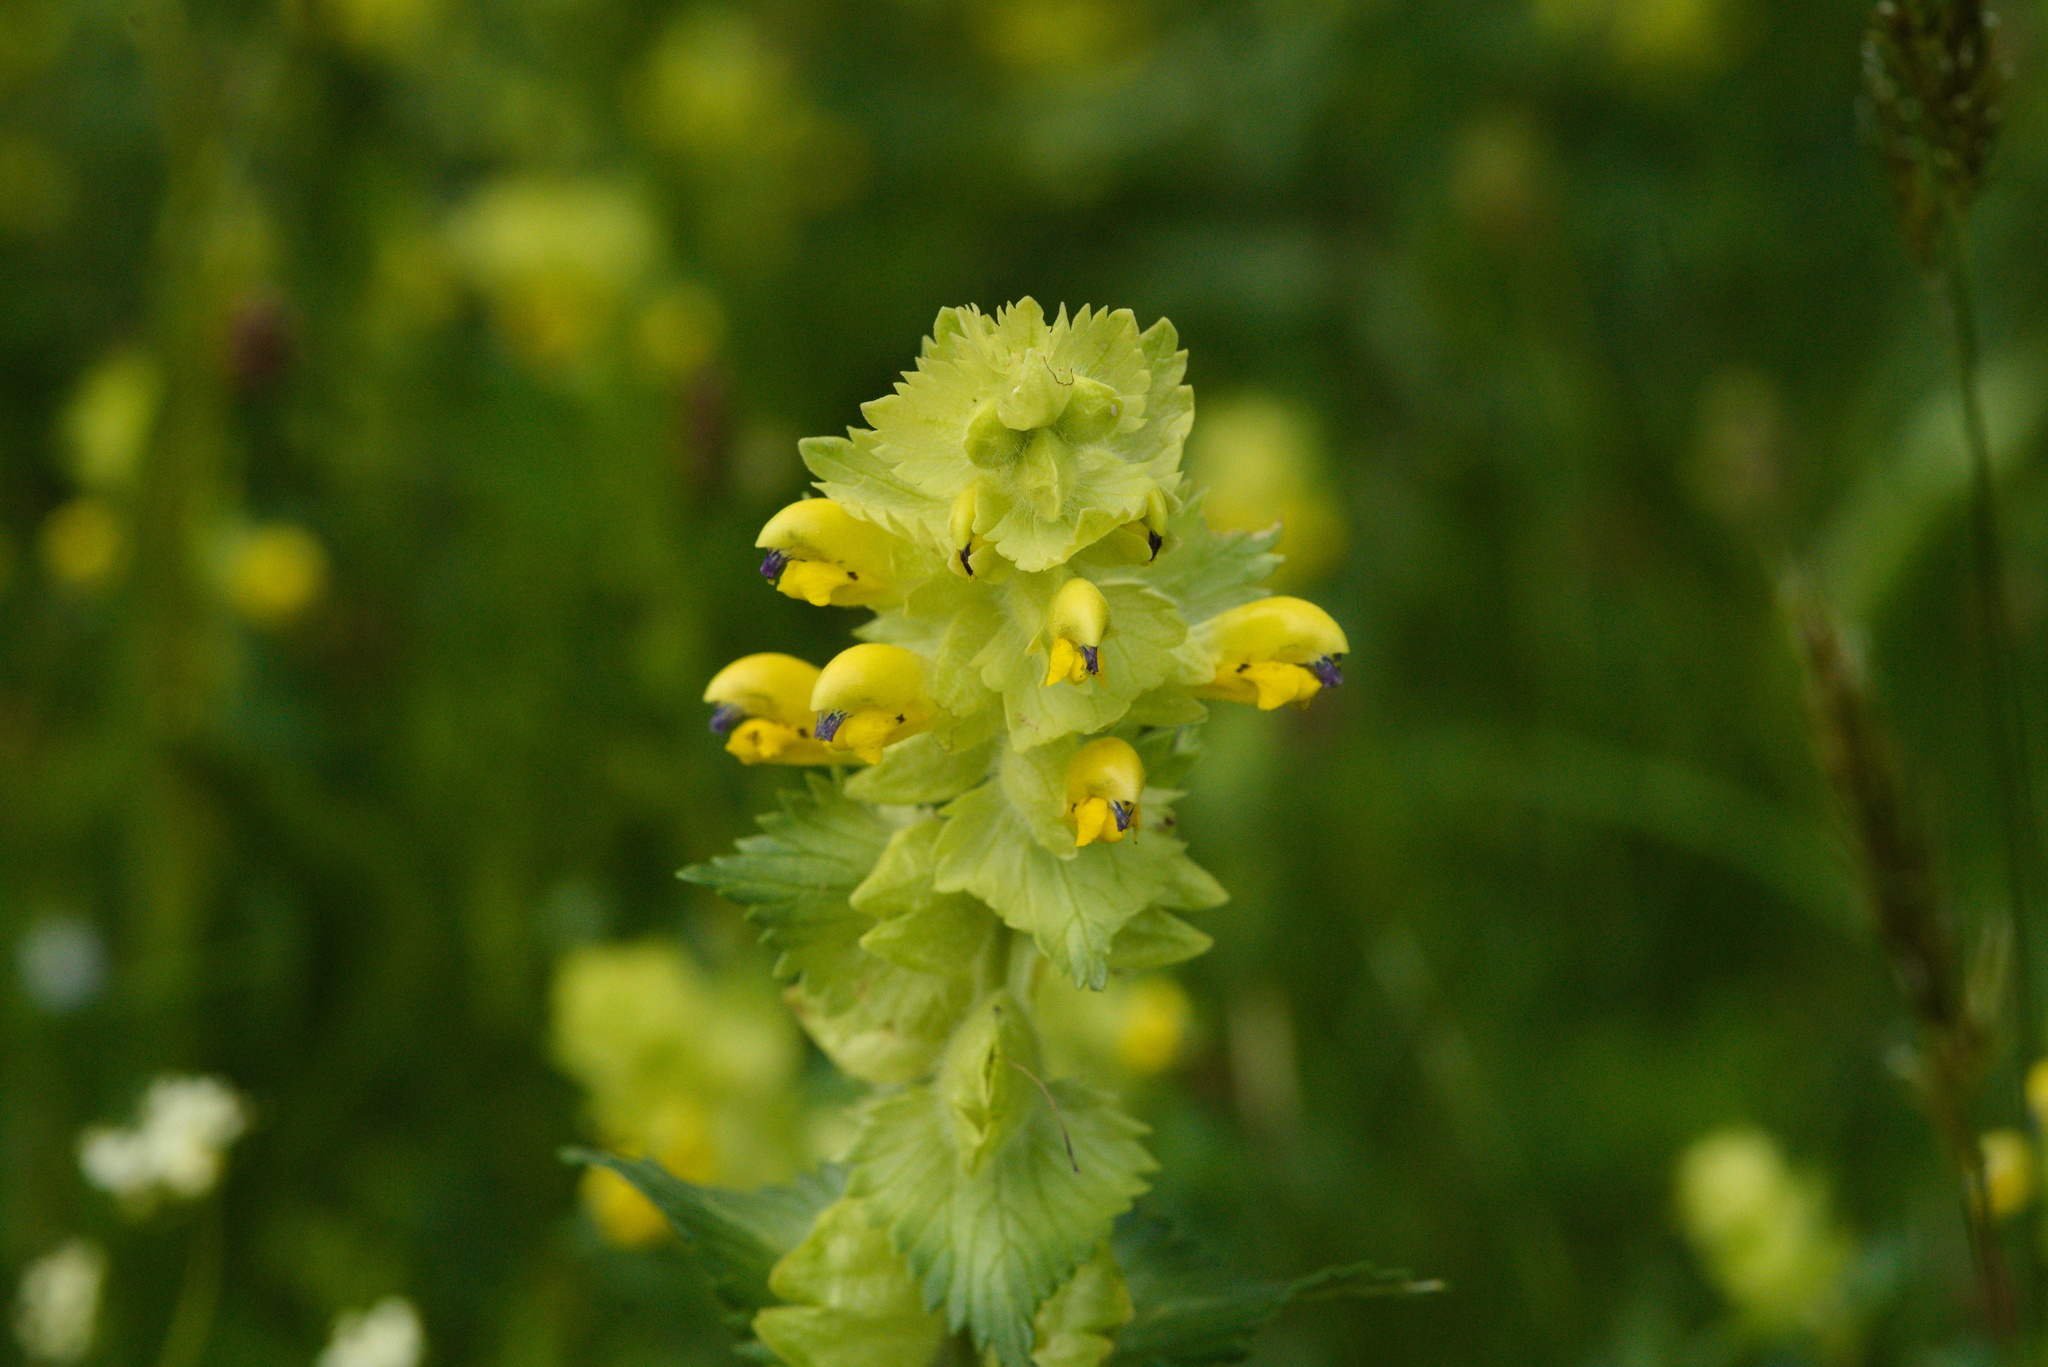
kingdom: Plantae
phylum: Tracheophyta
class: Magnoliopsida
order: Lamiales
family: Orobanchaceae
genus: Rhinanthus
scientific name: Rhinanthus alectorolophus
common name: Greater yellow-rattle
